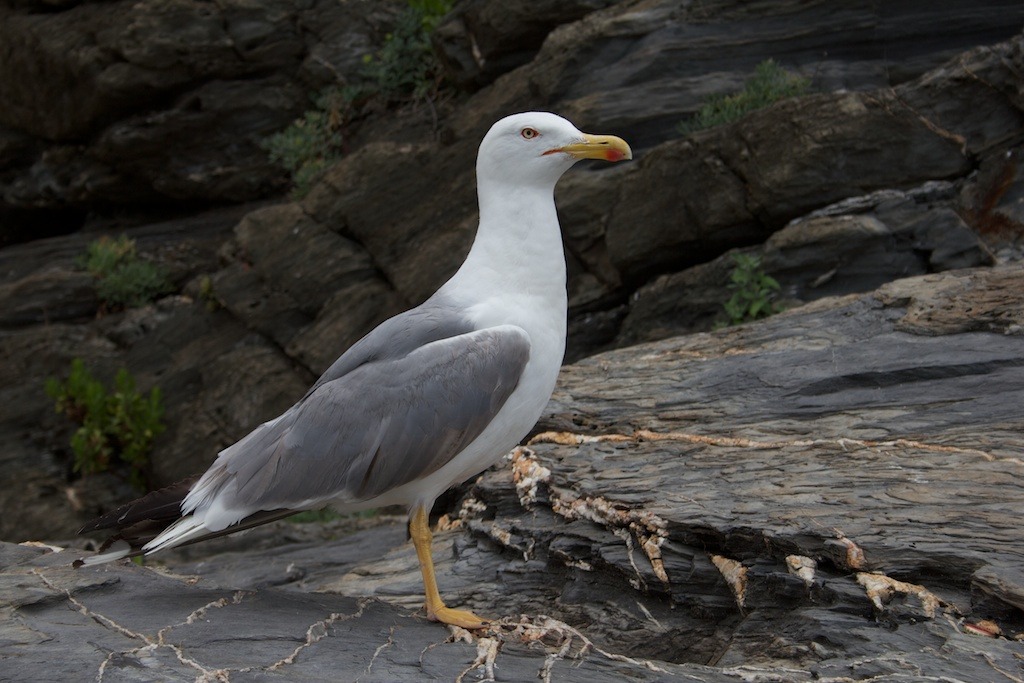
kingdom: Animalia
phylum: Chordata
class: Aves
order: Charadriiformes
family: Laridae
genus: Larus
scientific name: Larus michahellis
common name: Yellow-legged gull
